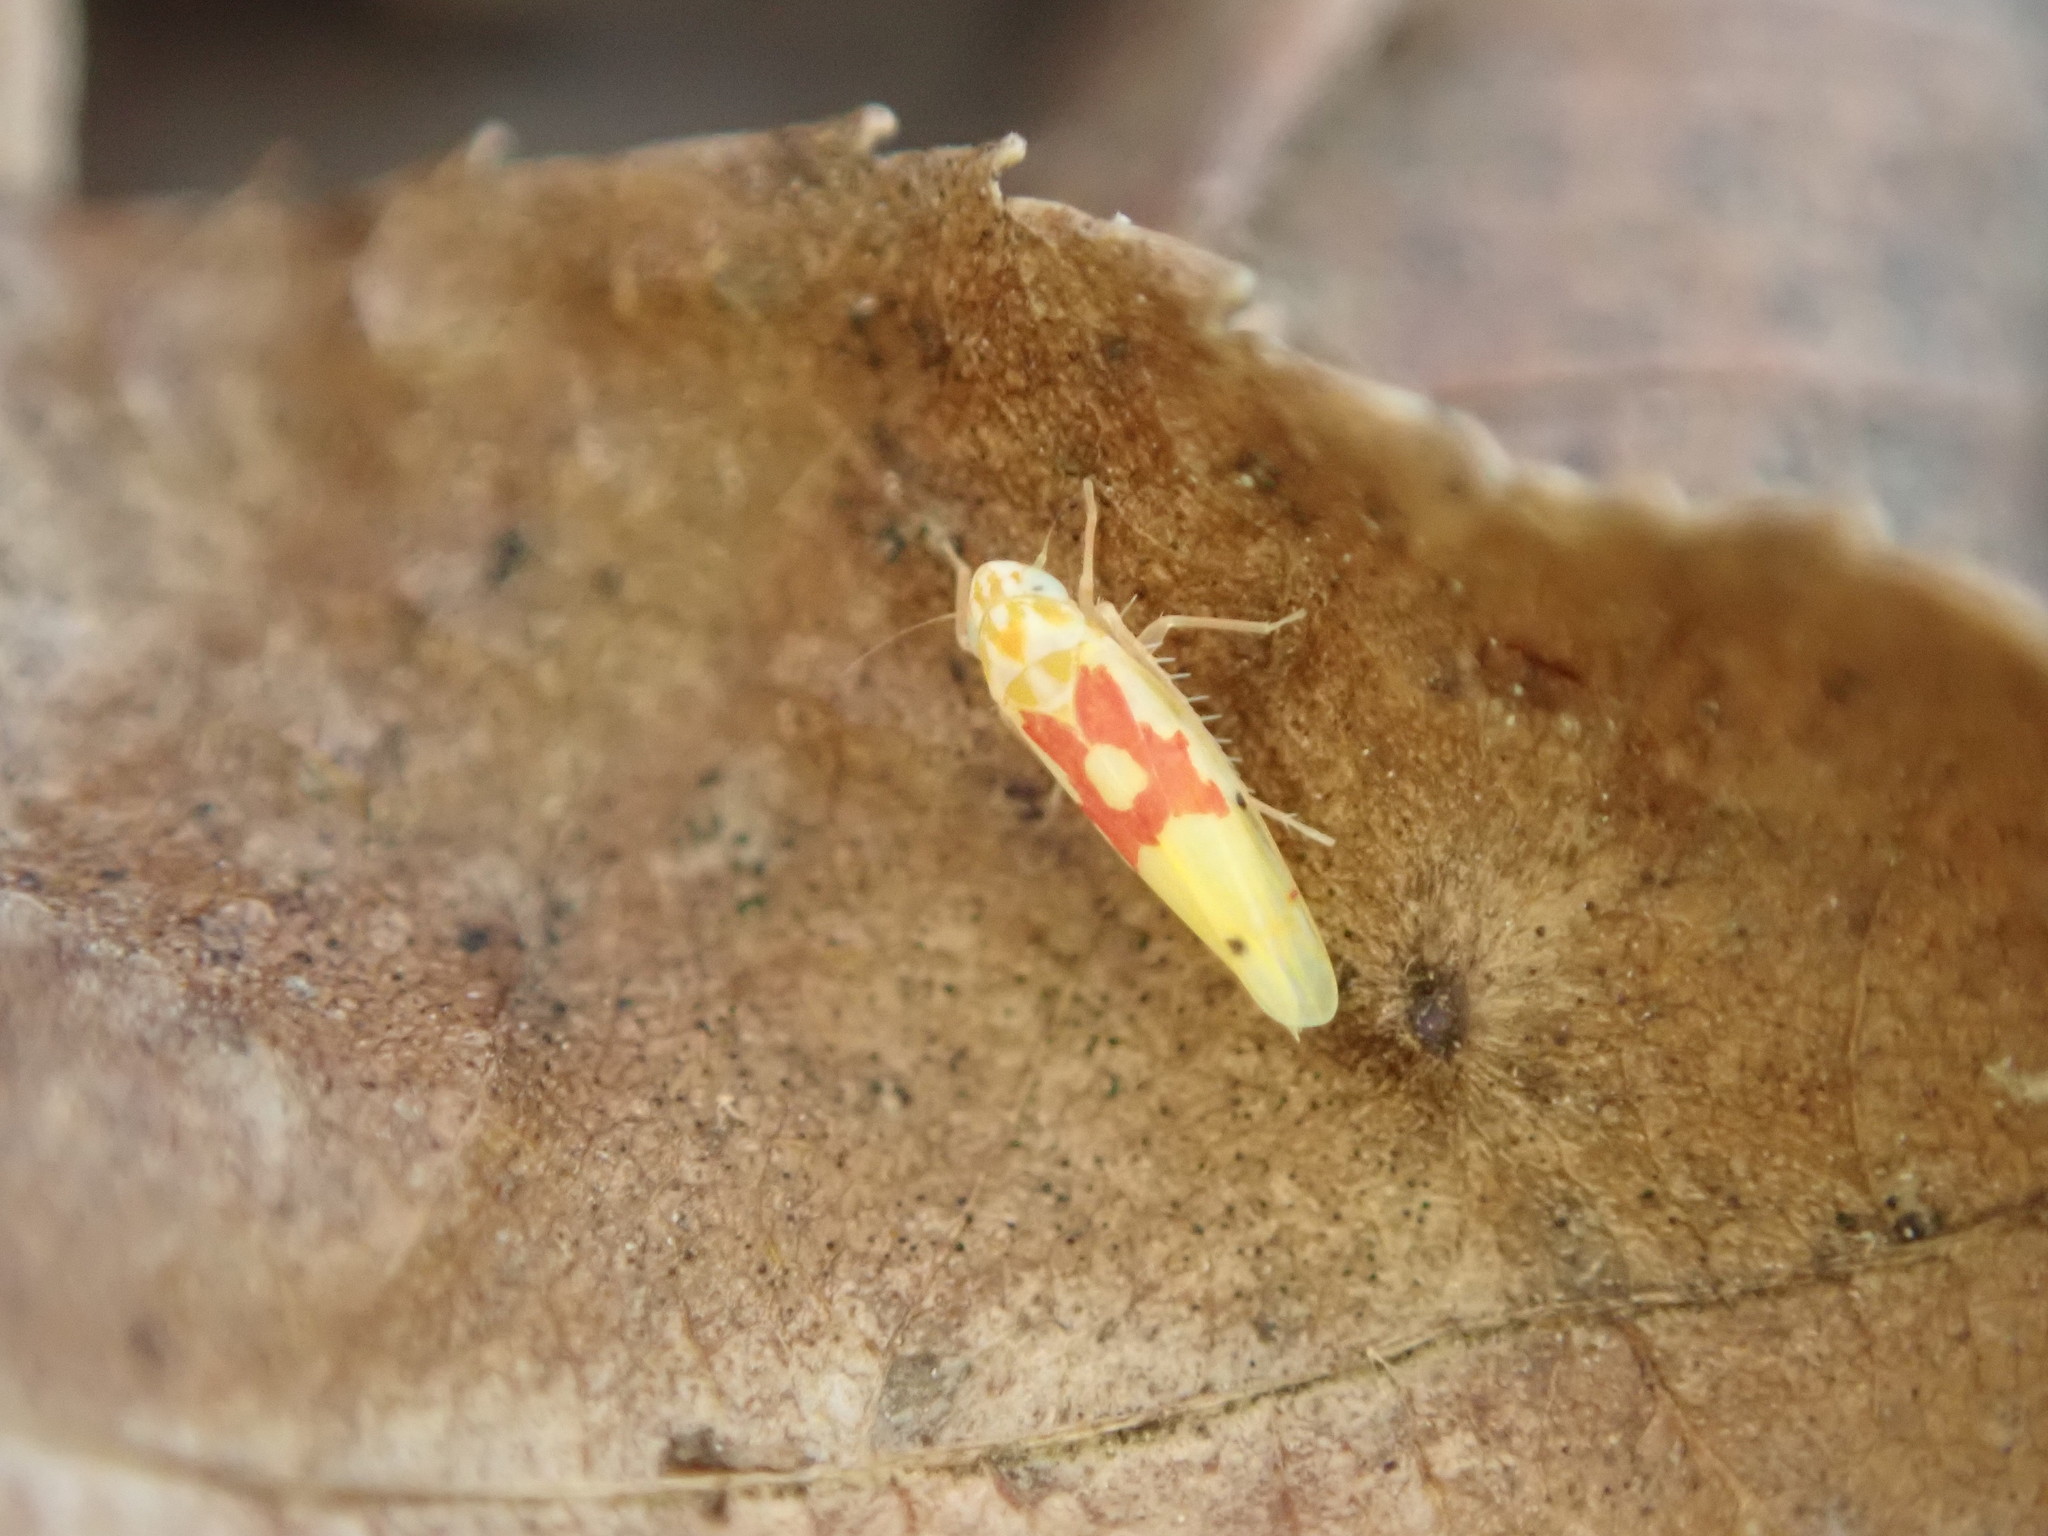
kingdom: Animalia
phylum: Arthropoda
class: Insecta
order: Hemiptera
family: Cicadellidae
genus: Eratoneura
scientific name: Eratoneura fulleri
